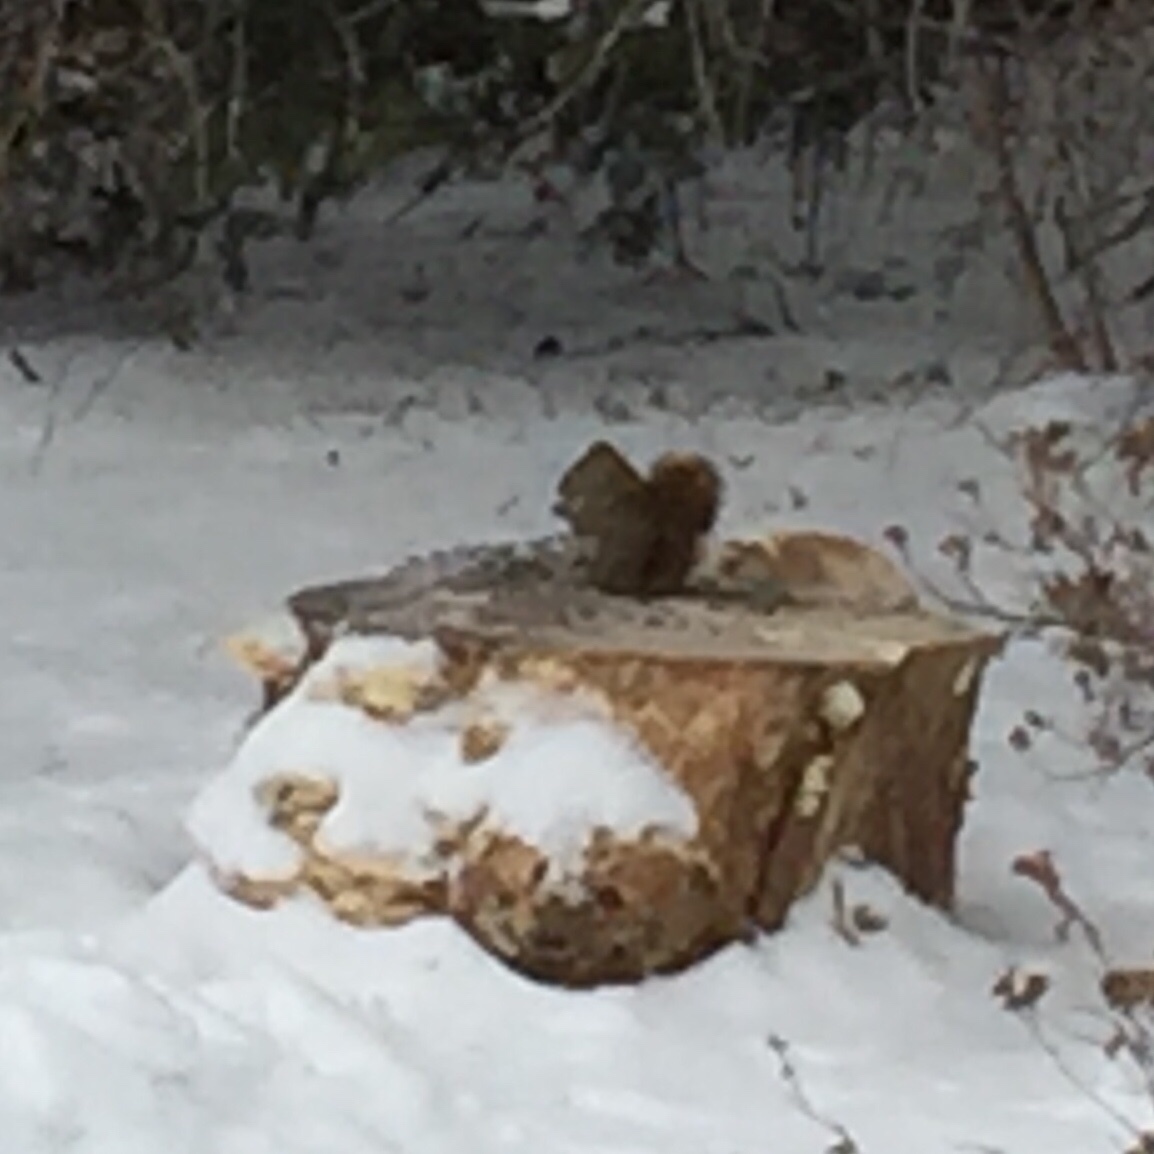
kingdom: Animalia
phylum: Chordata
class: Mammalia
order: Rodentia
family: Sciuridae
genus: Tamiasciurus
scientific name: Tamiasciurus hudsonicus
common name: Red squirrel
